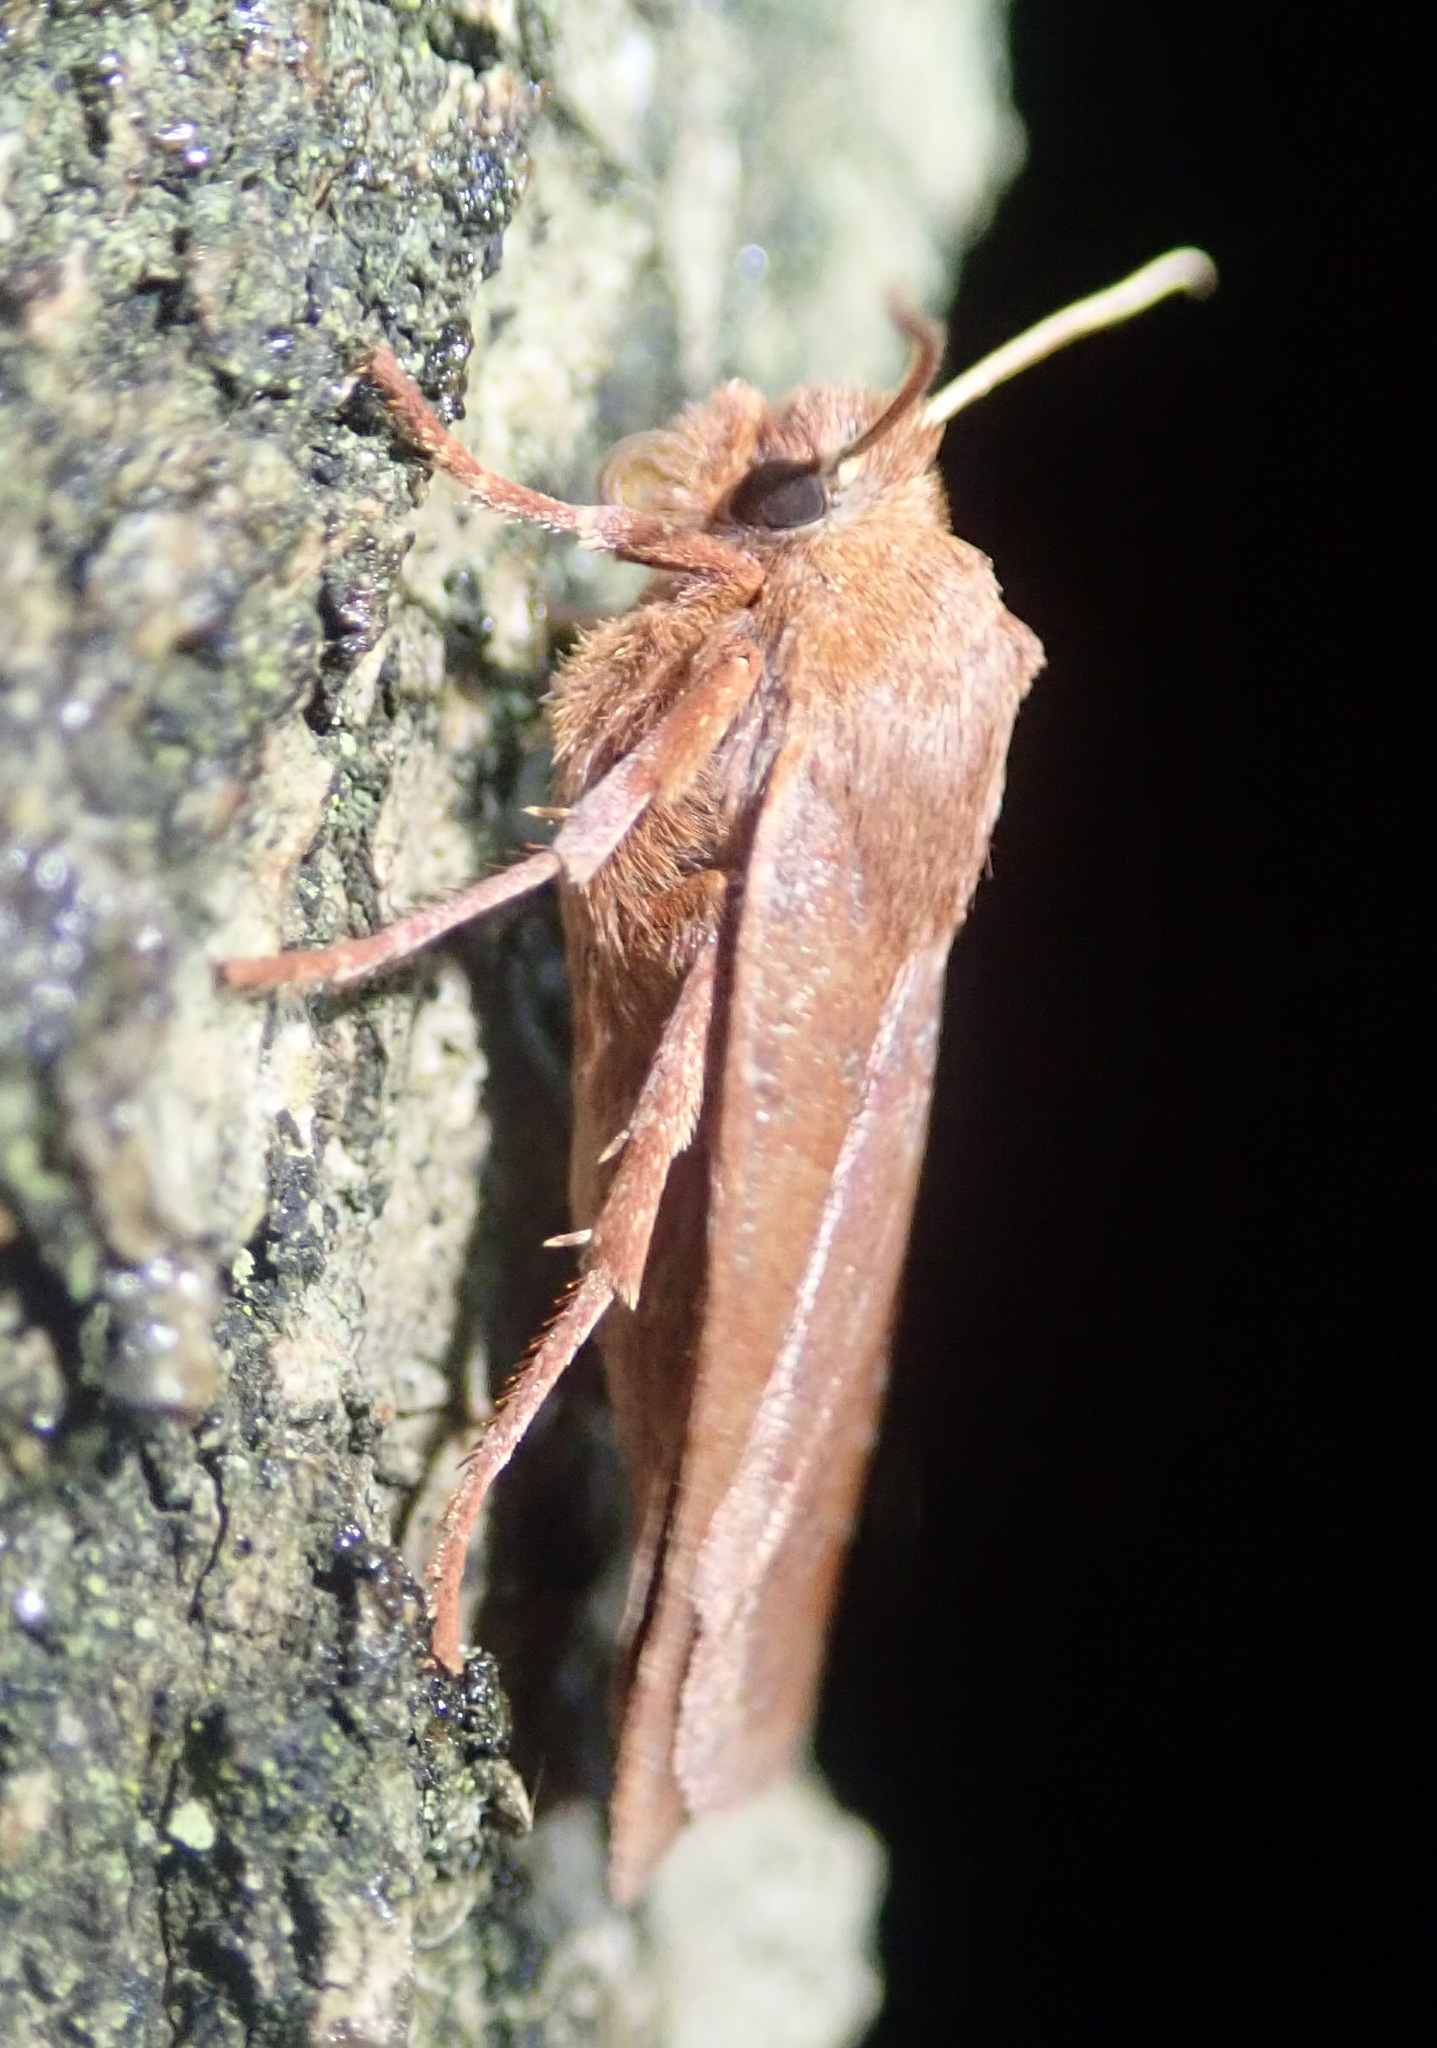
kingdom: Animalia
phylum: Arthropoda
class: Insecta
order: Lepidoptera
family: Noctuidae
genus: Conistra
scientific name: Conistra vaccinii
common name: Chestnut
